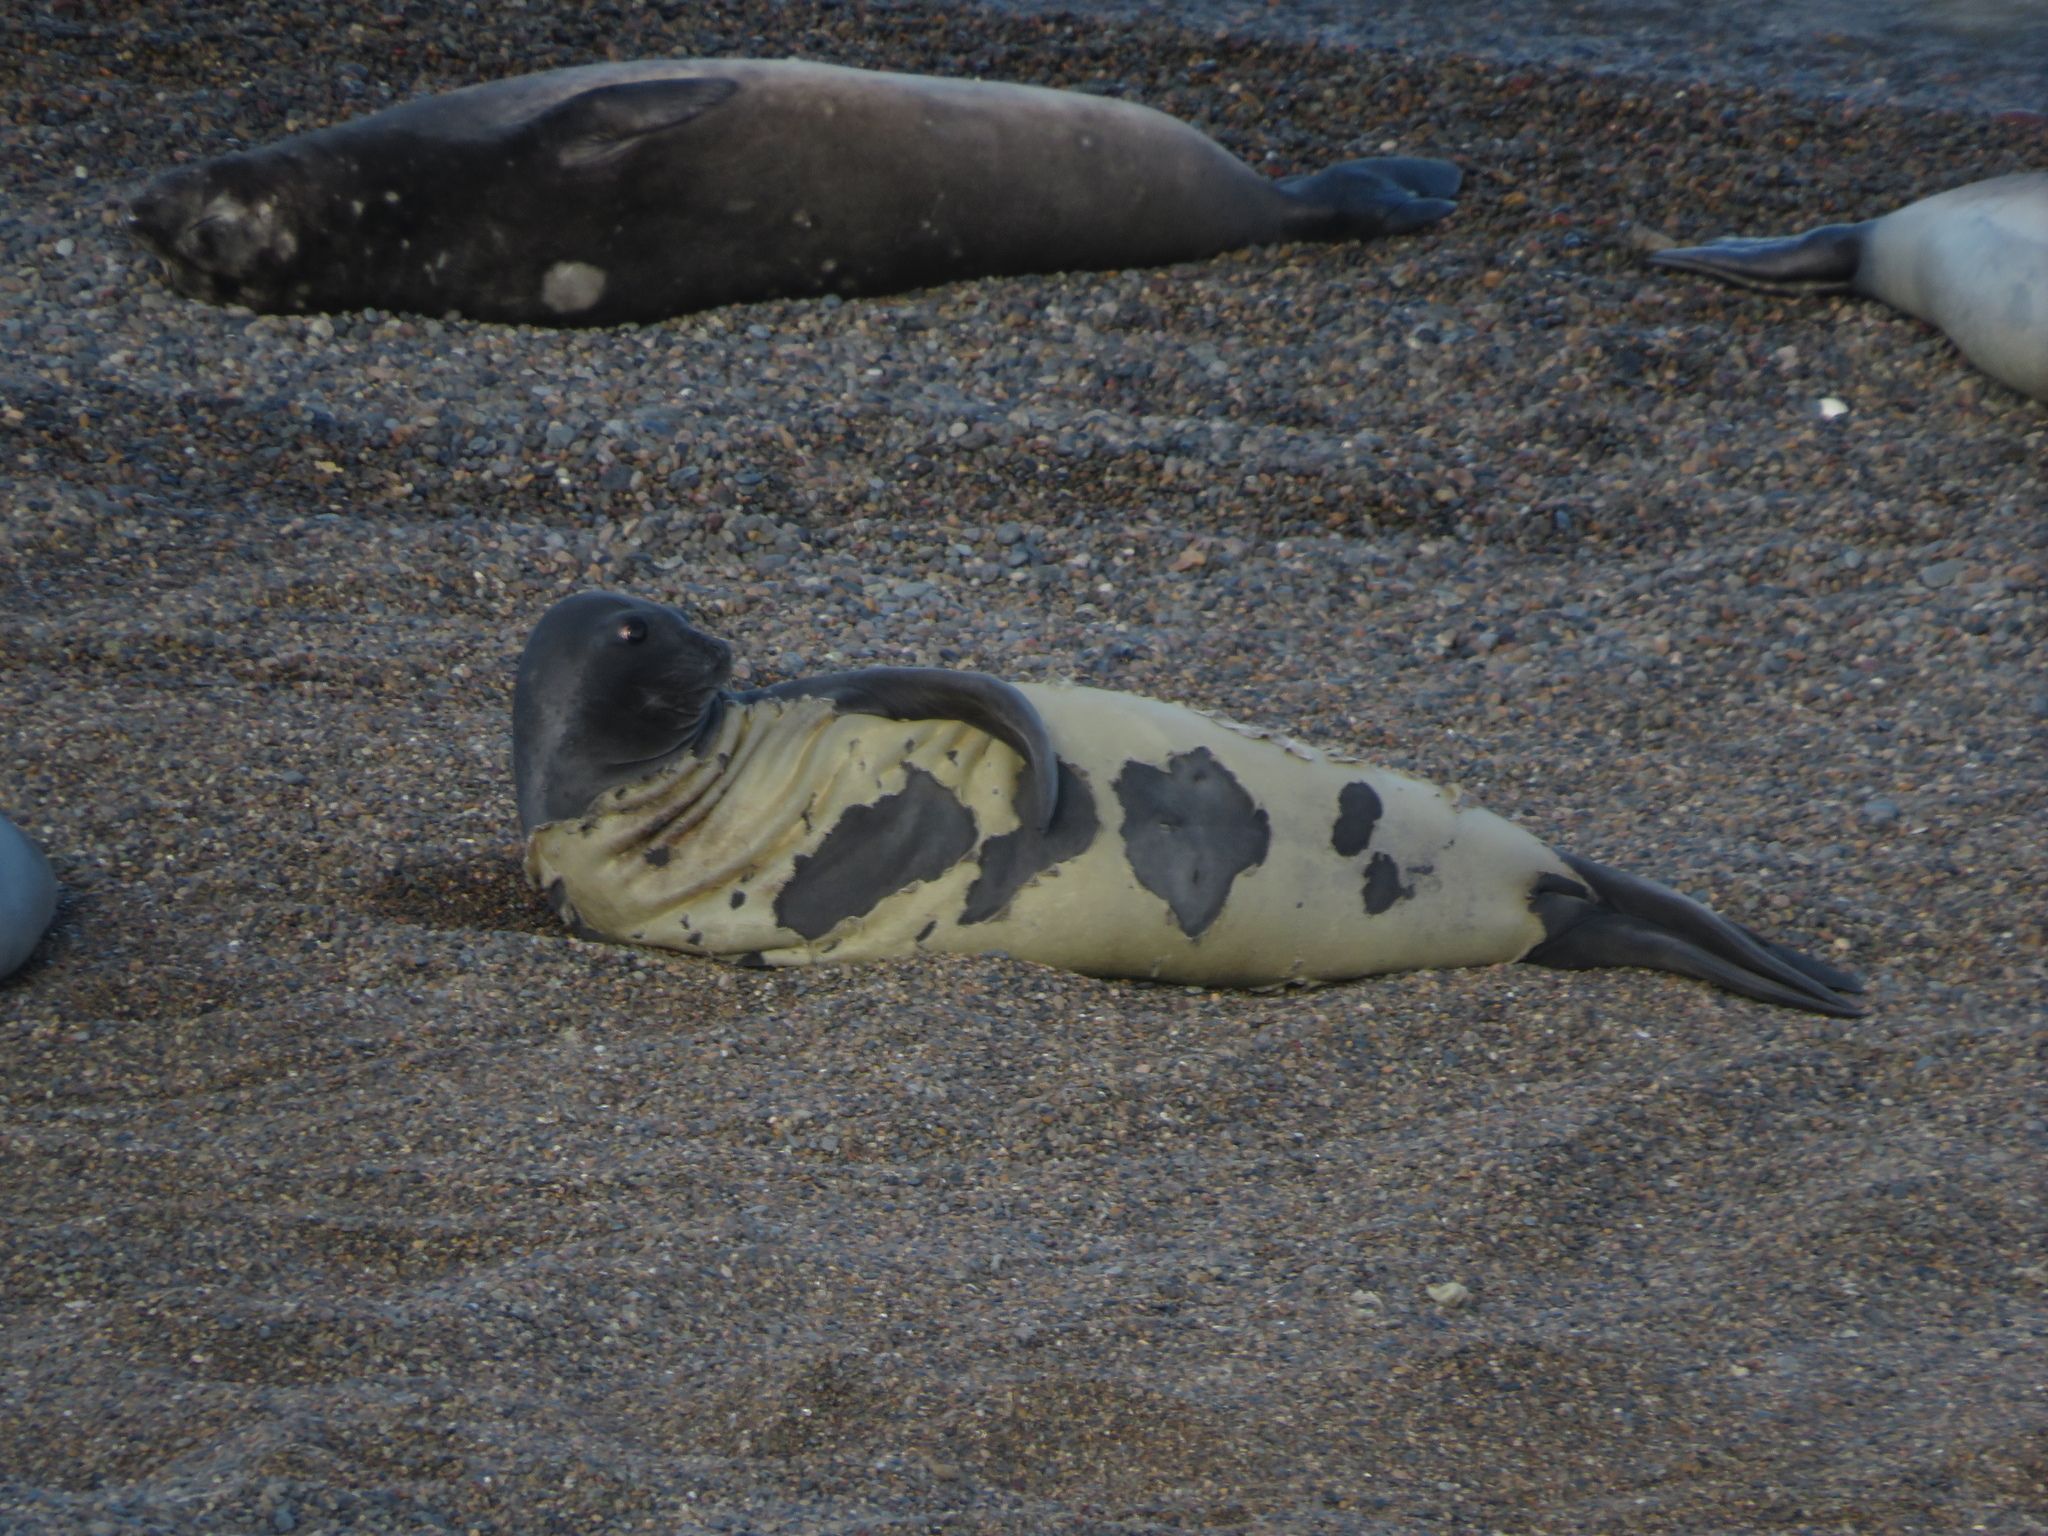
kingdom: Animalia
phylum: Chordata
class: Mammalia
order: Carnivora
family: Phocidae
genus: Mirounga
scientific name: Mirounga leonina
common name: Southern elephant seal
